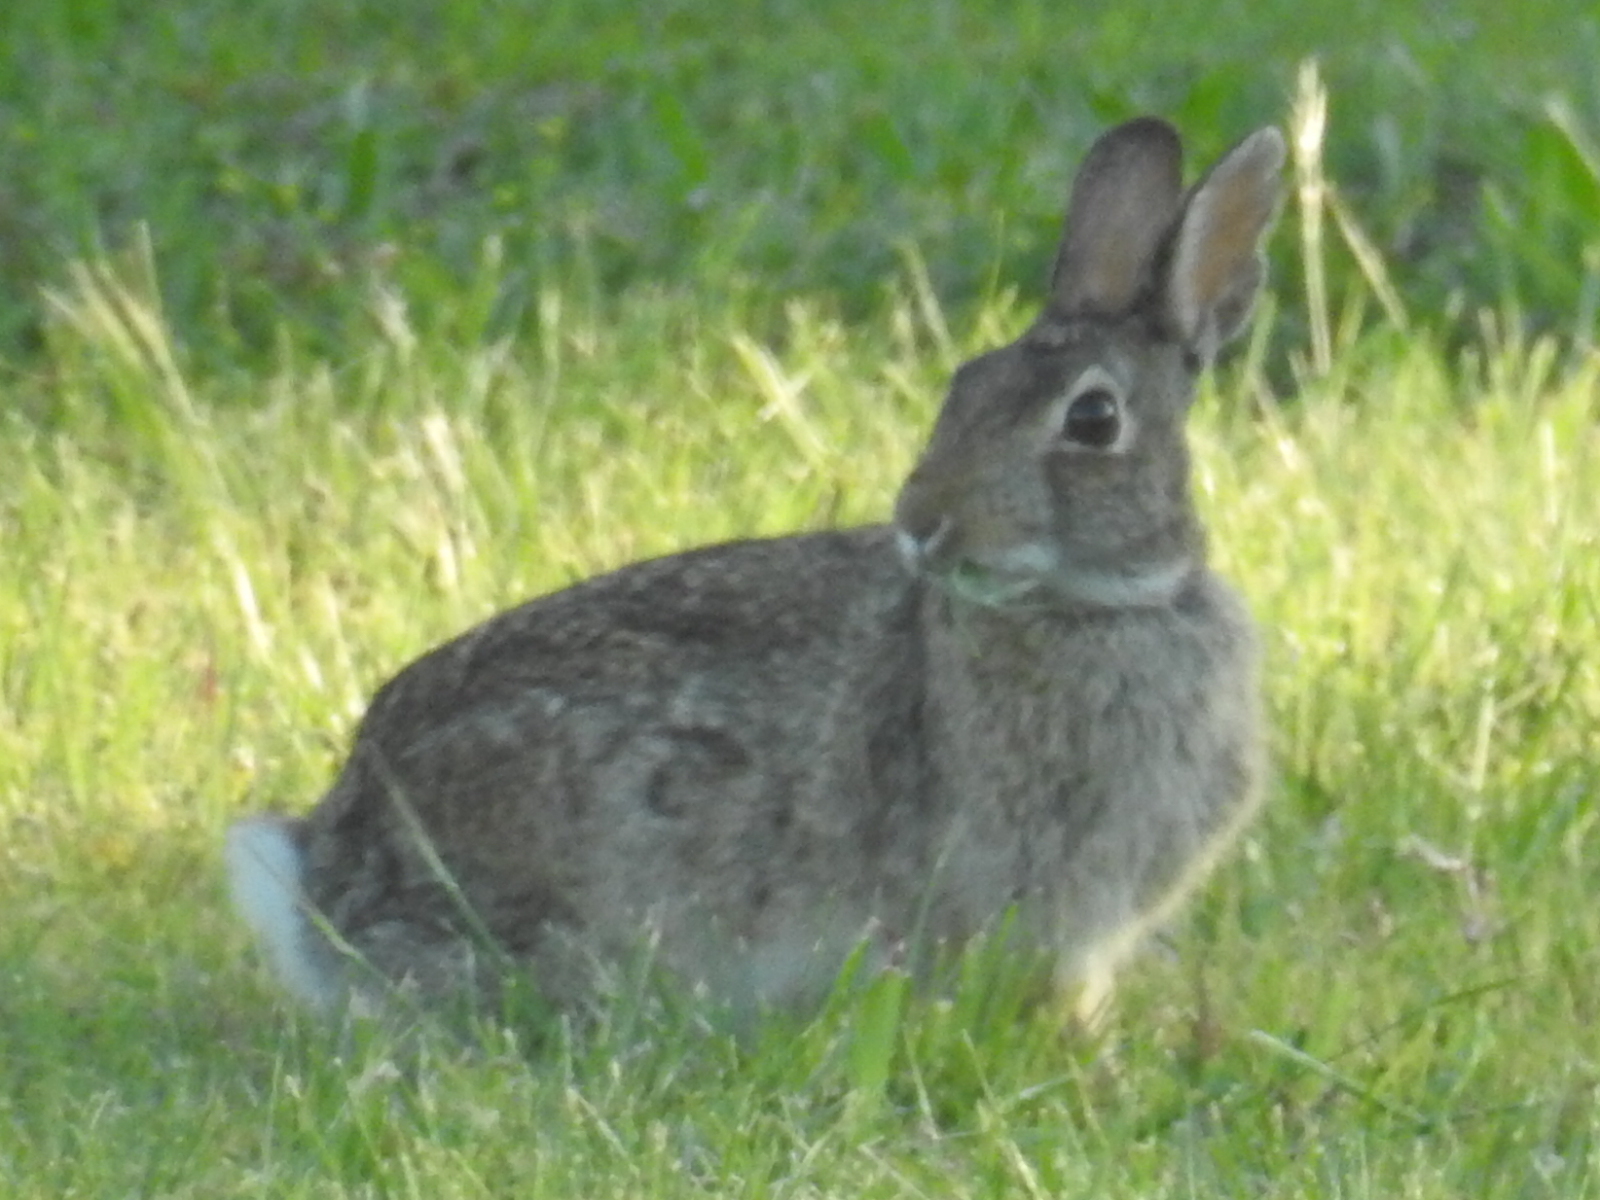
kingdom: Animalia
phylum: Chordata
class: Mammalia
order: Lagomorpha
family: Leporidae
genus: Sylvilagus
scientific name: Sylvilagus floridanus
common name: Eastern cottontail
